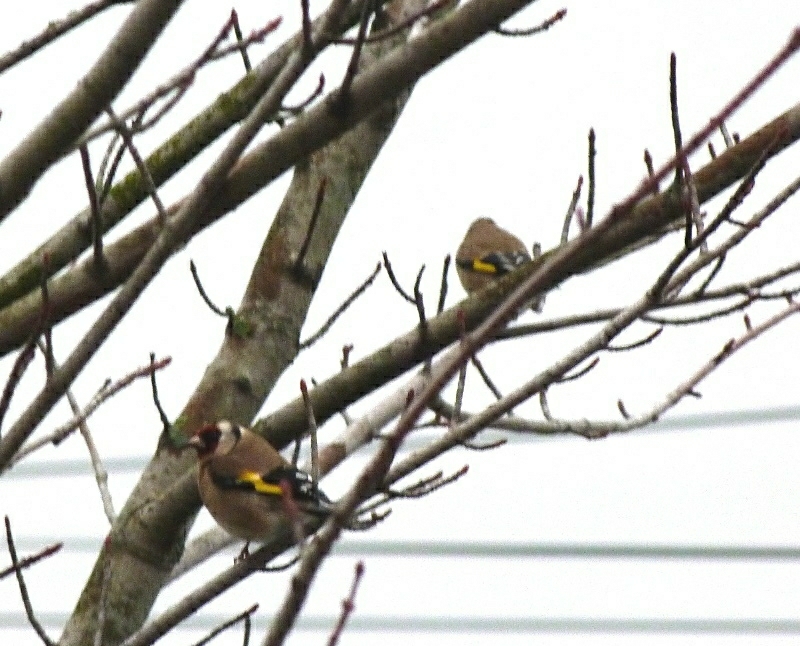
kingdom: Animalia
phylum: Chordata
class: Aves
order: Passeriformes
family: Fringillidae
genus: Carduelis
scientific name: Carduelis carduelis
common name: European goldfinch
